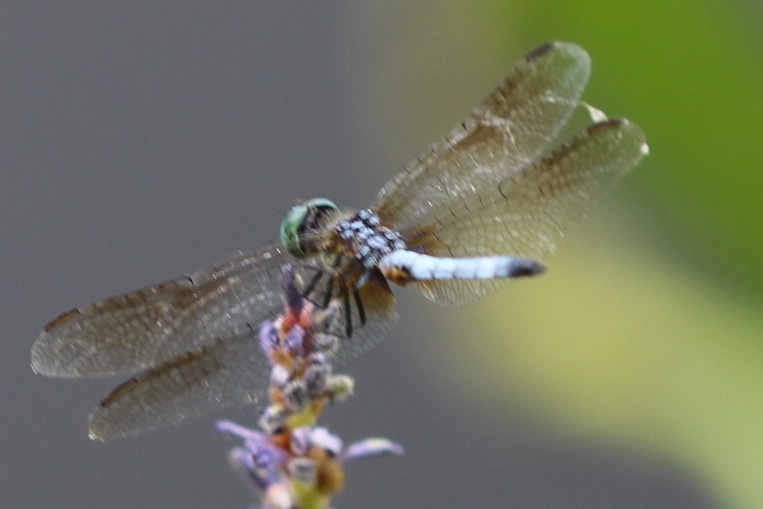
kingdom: Animalia
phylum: Arthropoda
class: Insecta
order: Odonata
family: Libellulidae
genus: Pachydiplax
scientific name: Pachydiplax longipennis
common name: Blue dasher
